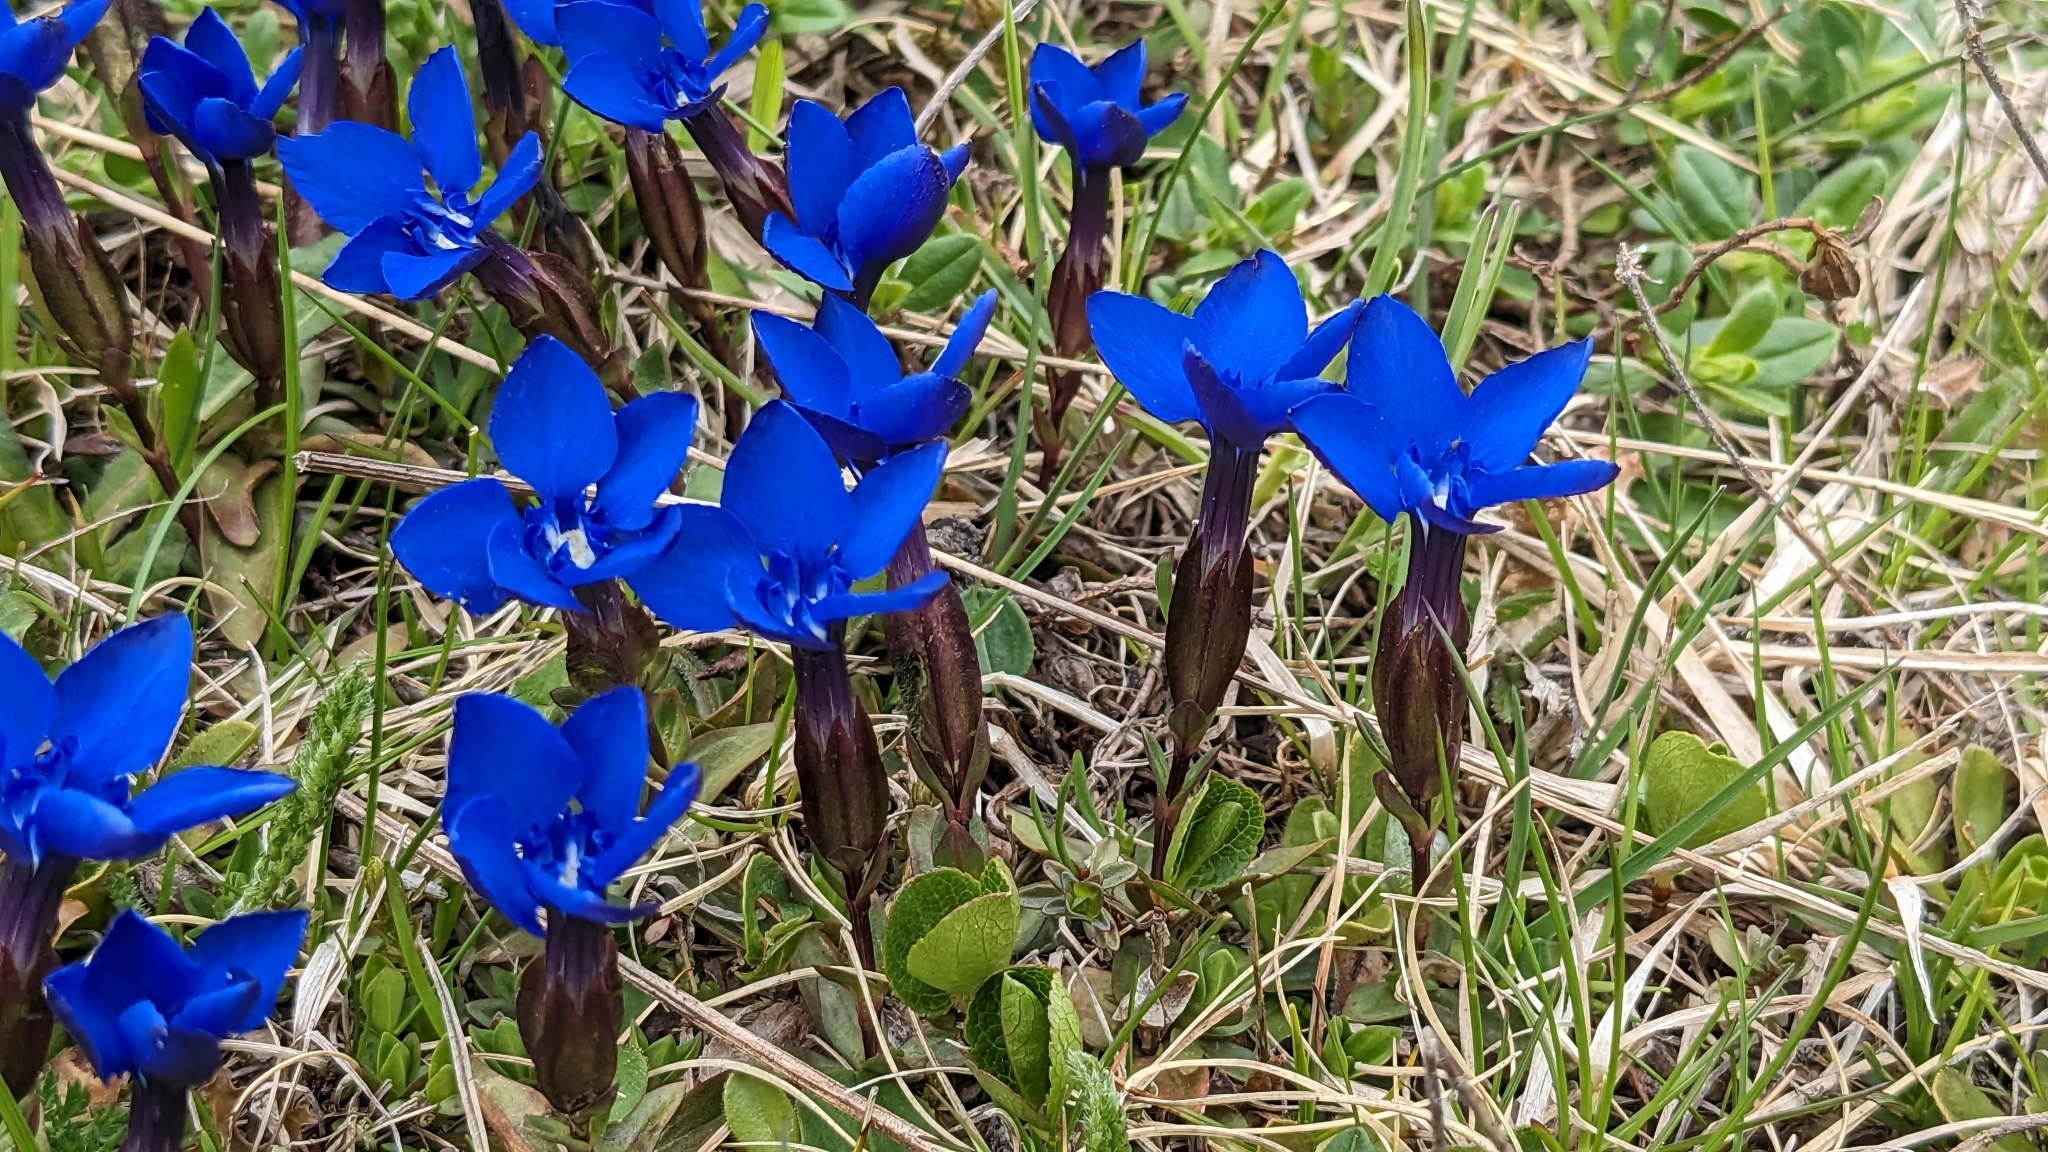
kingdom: Plantae
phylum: Tracheophyta
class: Magnoliopsida
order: Gentianales
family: Gentianaceae
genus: Gentiana
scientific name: Gentiana verna
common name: Spring gentian
